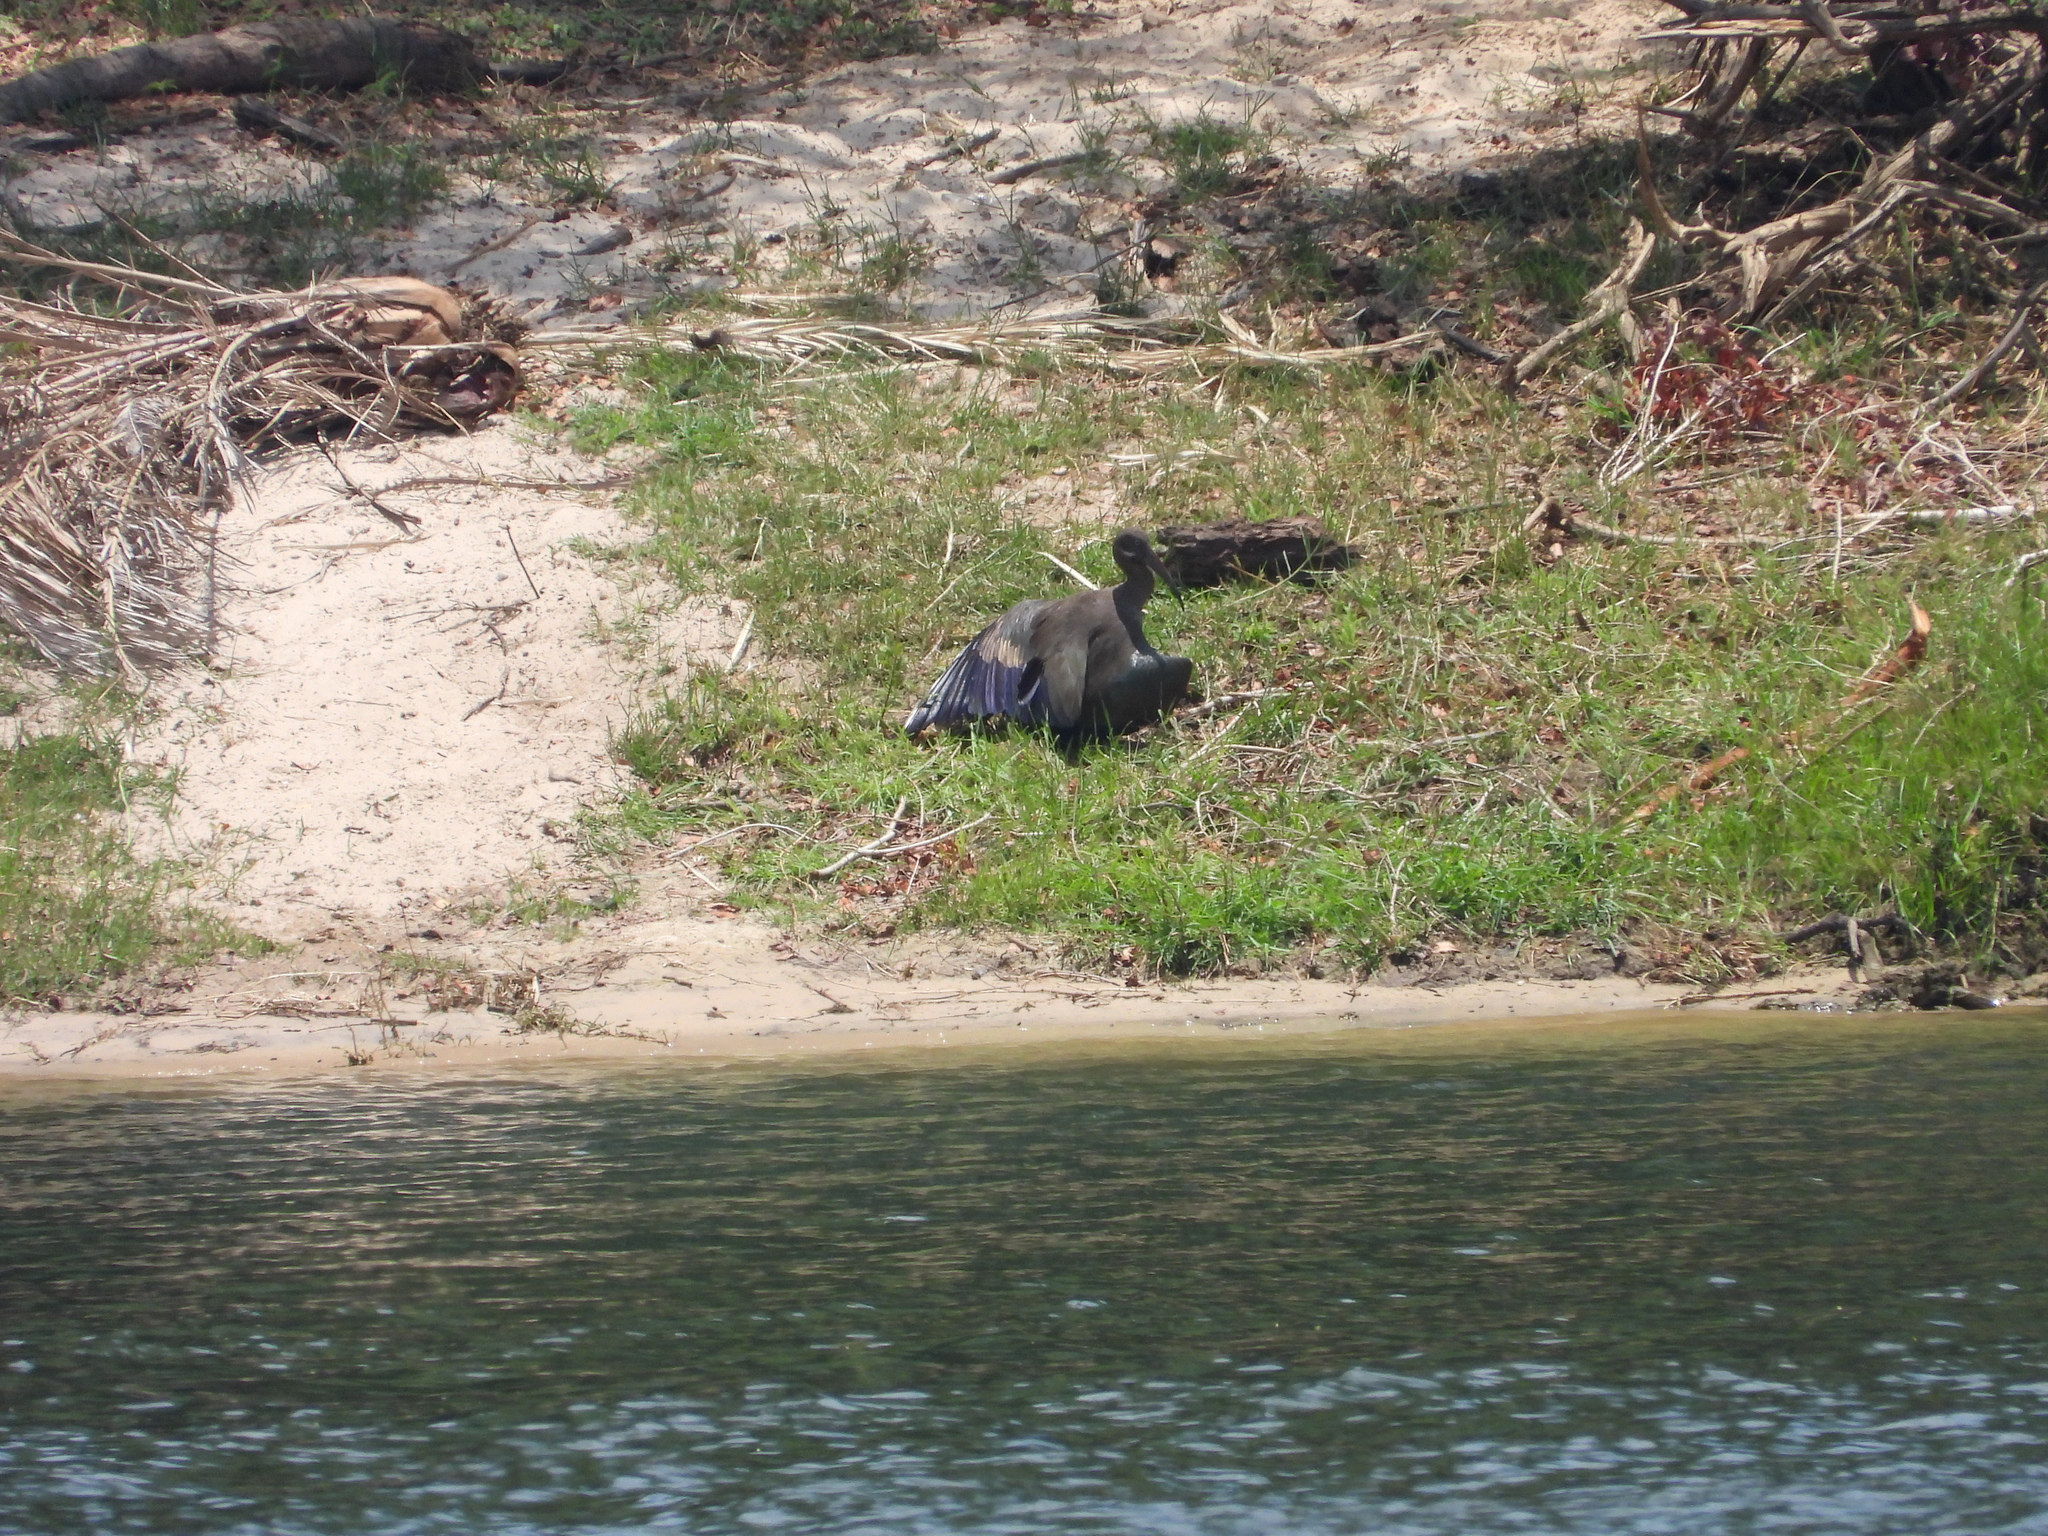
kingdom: Animalia
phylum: Chordata
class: Aves
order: Pelecaniformes
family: Threskiornithidae
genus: Bostrychia
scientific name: Bostrychia hagedash
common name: Hadada ibis
